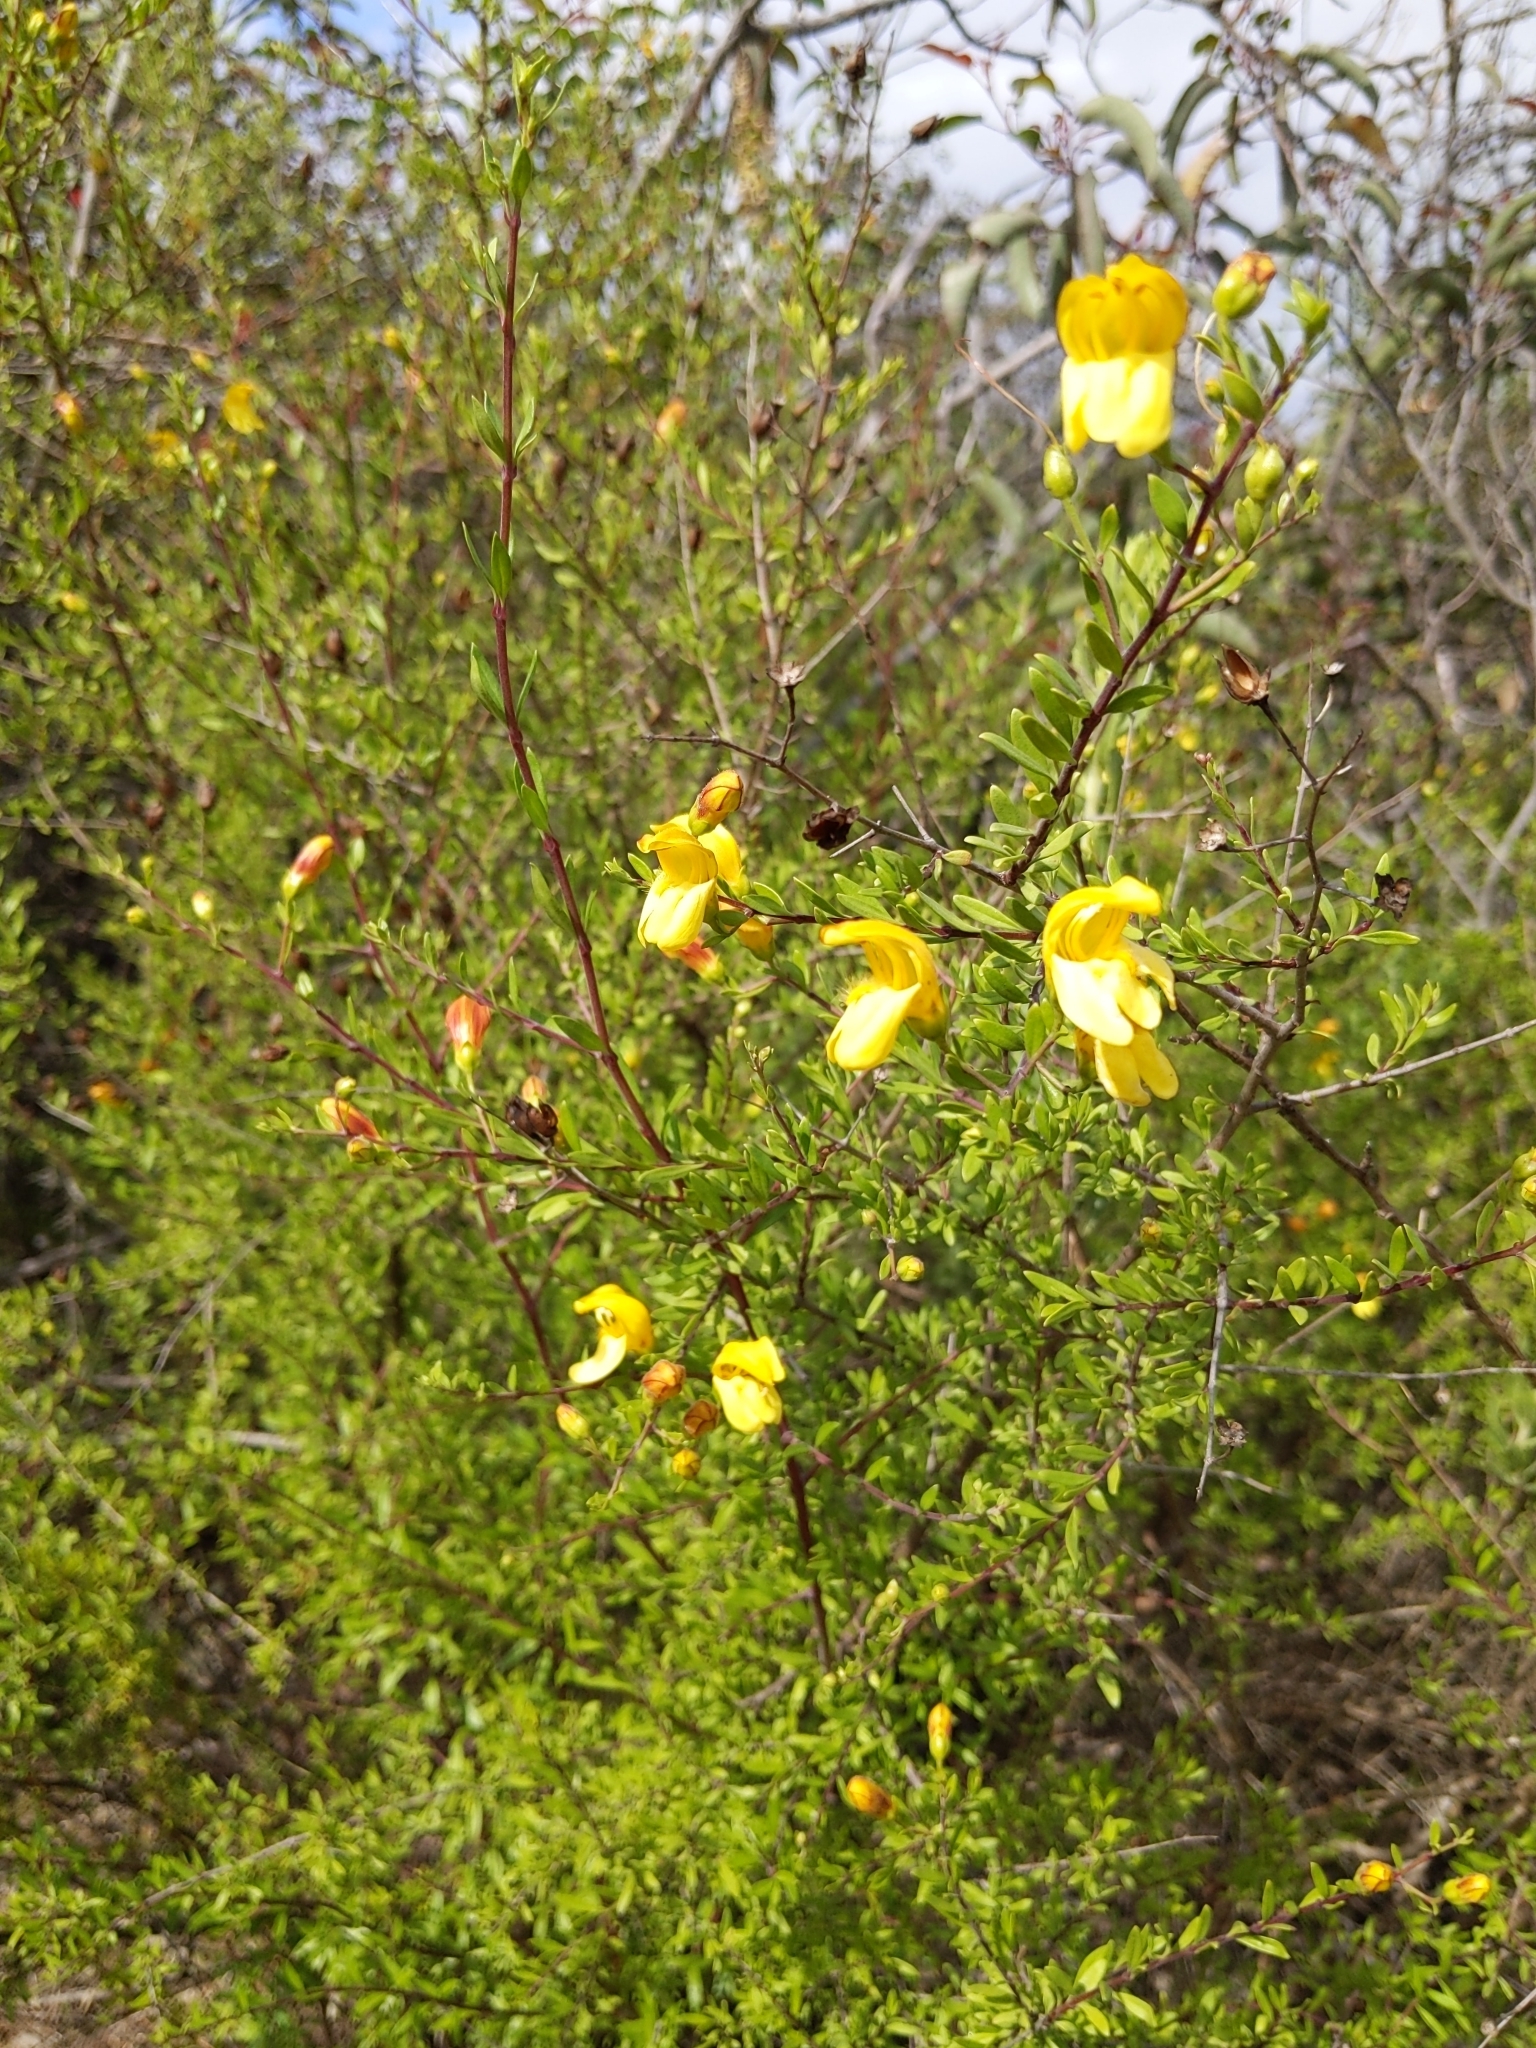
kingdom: Plantae
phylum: Tracheophyta
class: Magnoliopsida
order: Lamiales
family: Plantaginaceae
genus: Keckiella
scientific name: Keckiella antirrhinoides
